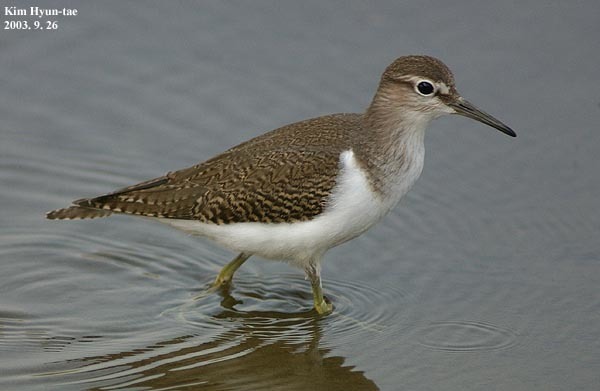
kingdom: Animalia
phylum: Chordata
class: Aves
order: Charadriiformes
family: Scolopacidae
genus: Actitis
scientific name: Actitis hypoleucos
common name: Common sandpiper
